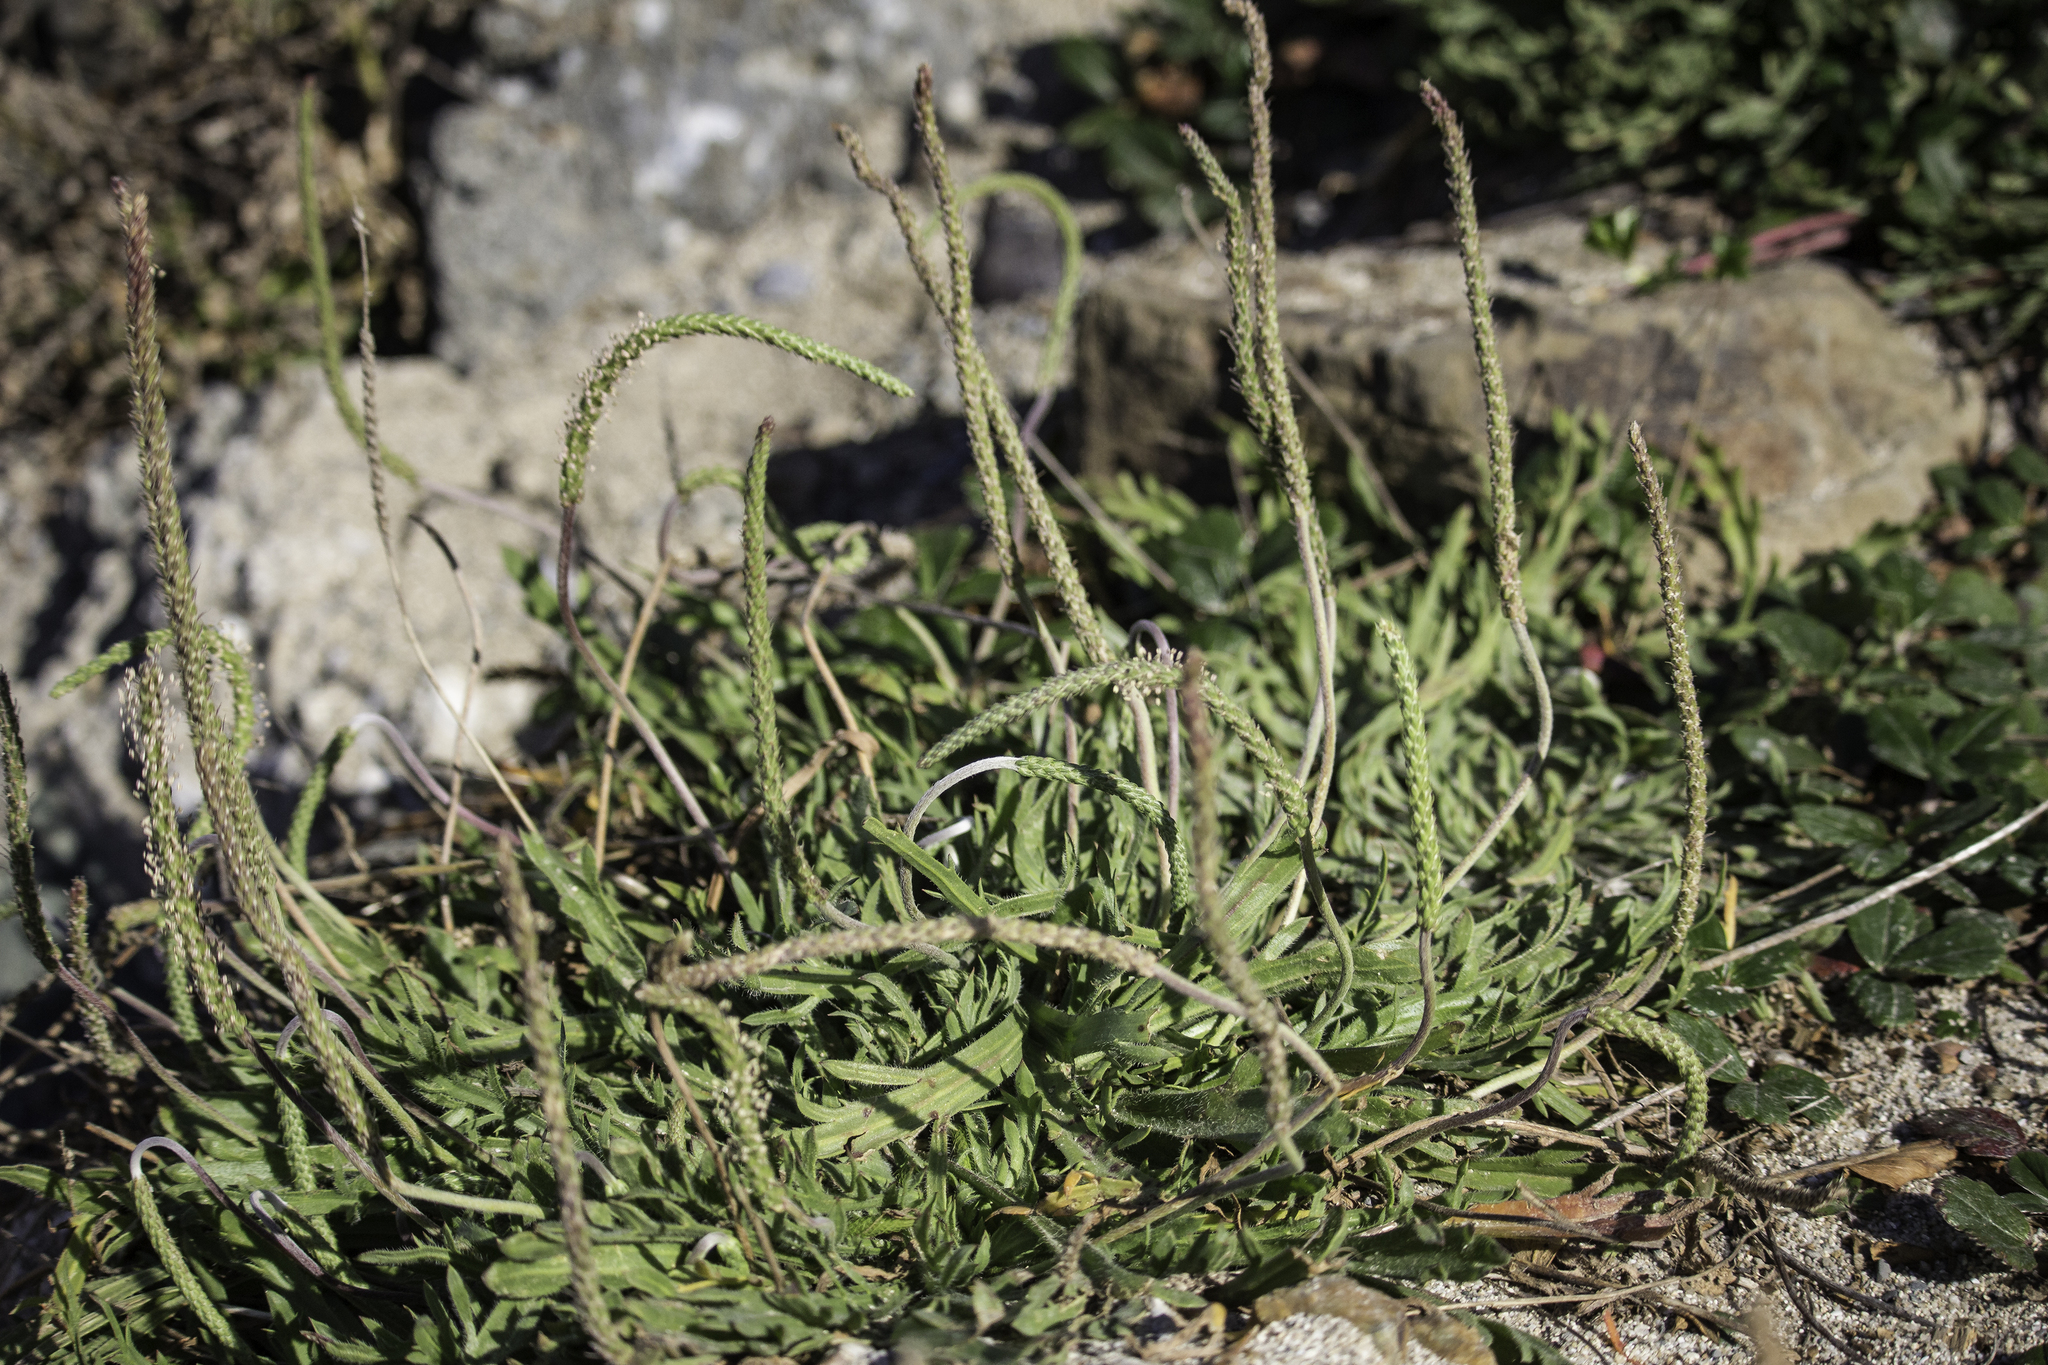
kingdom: Plantae
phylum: Tracheophyta
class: Magnoliopsida
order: Lamiales
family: Plantaginaceae
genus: Plantago
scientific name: Plantago coronopus
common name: Buck's-horn plantain
